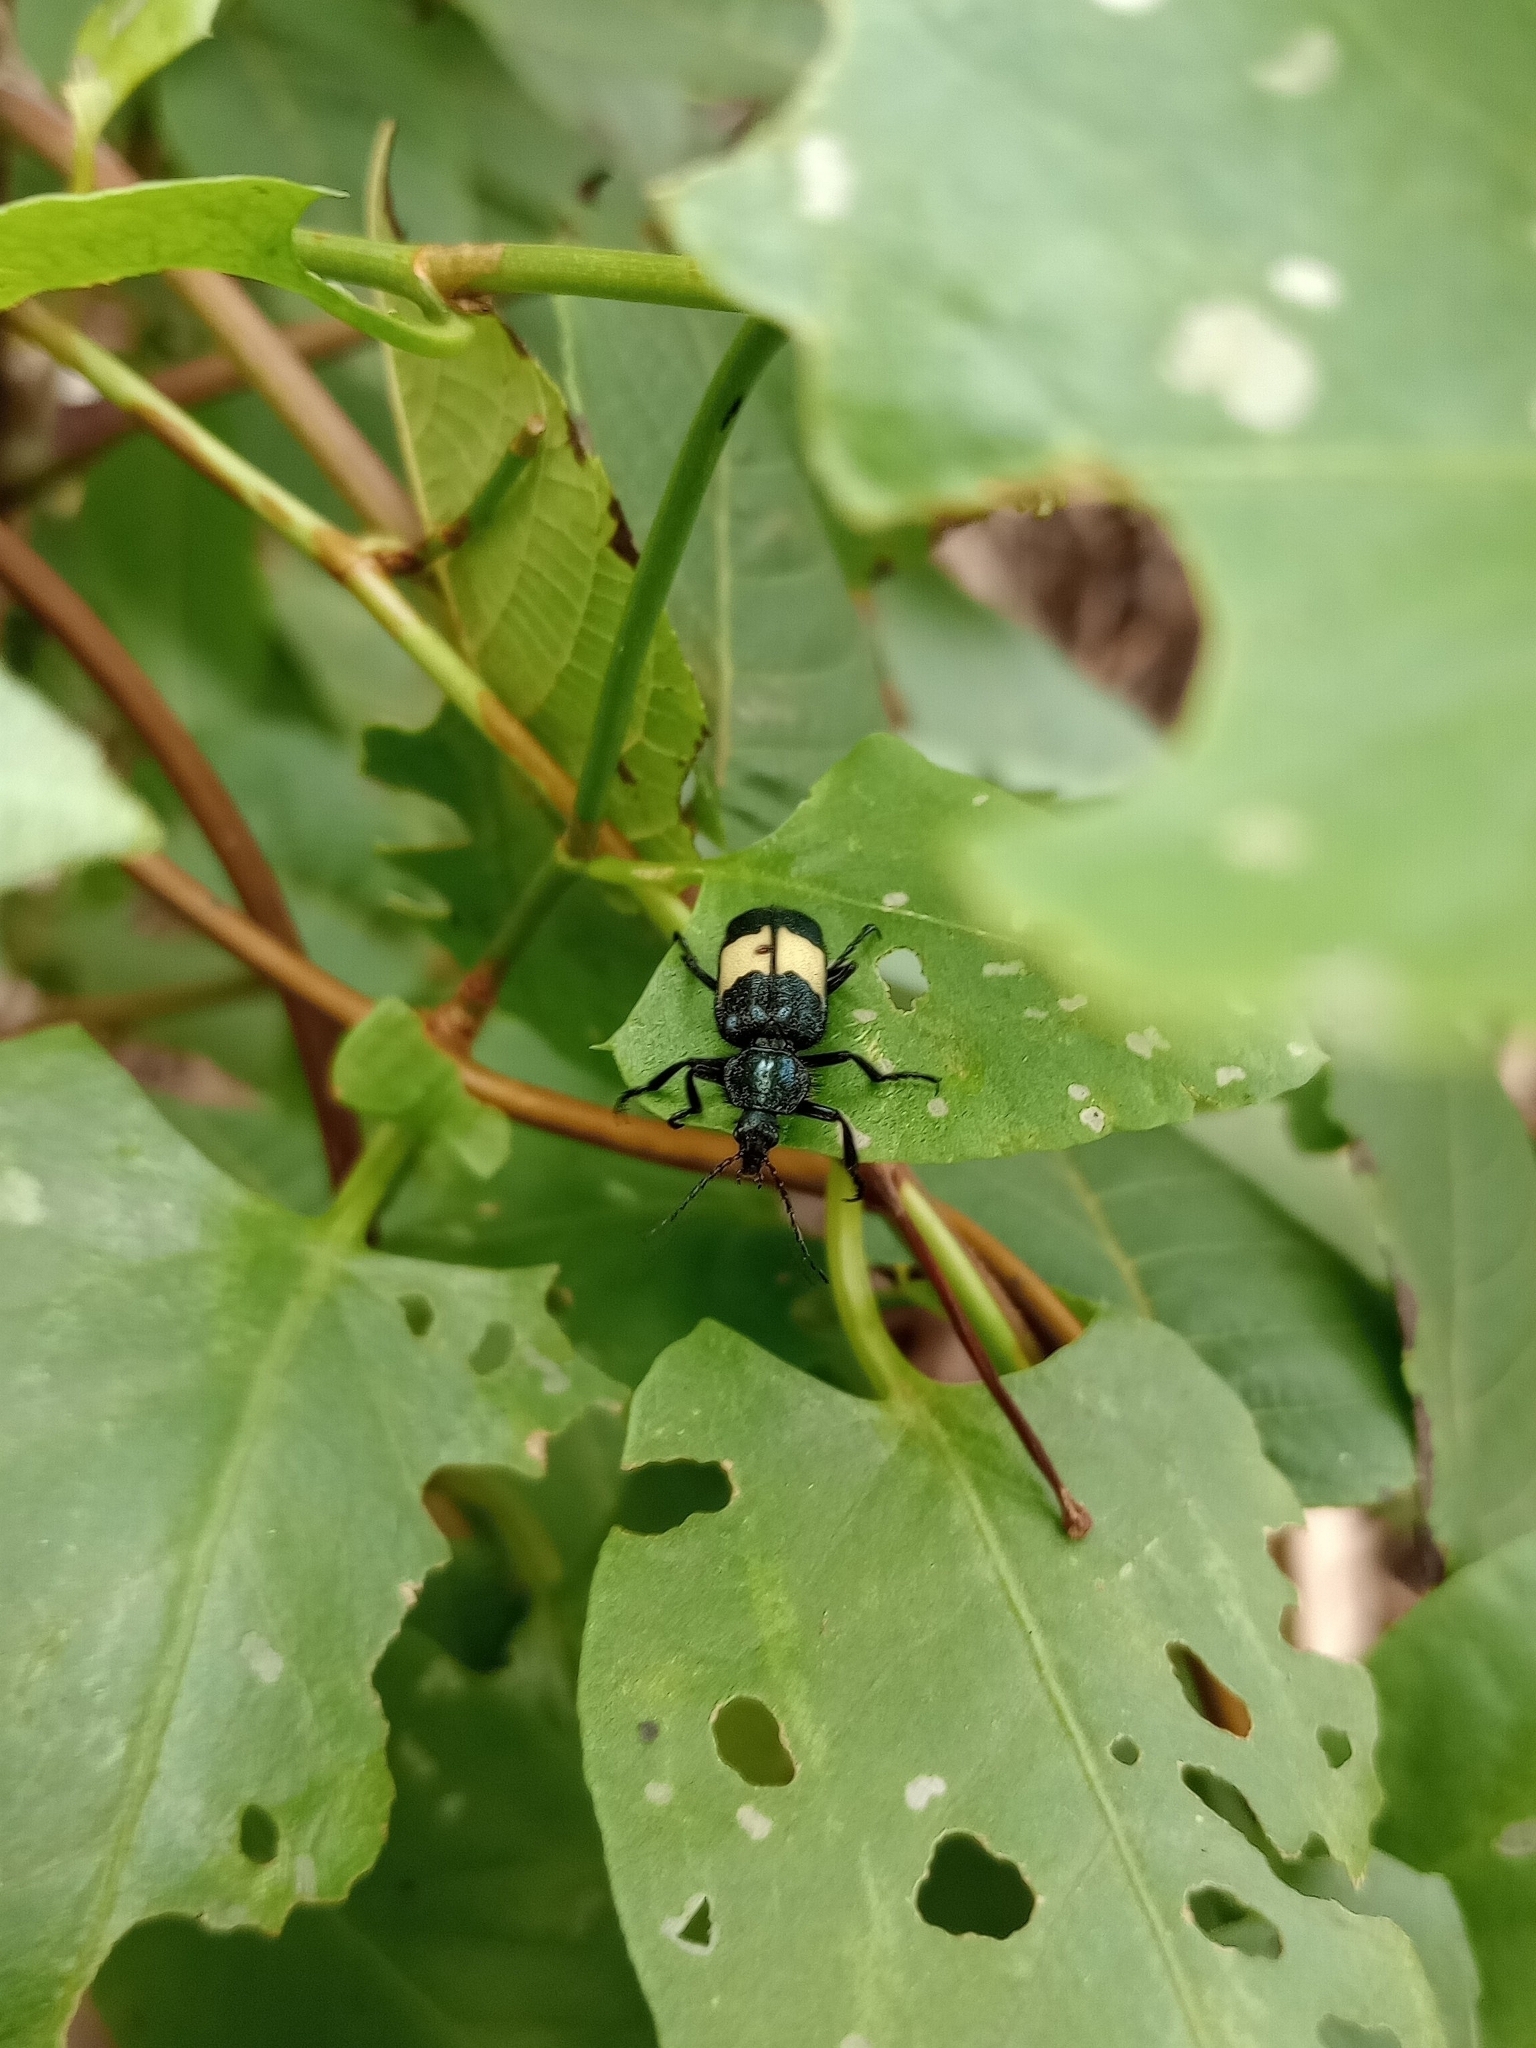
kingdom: Animalia
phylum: Arthropoda
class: Insecta
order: Coleoptera
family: Melyridae
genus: Astylus
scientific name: Astylus
